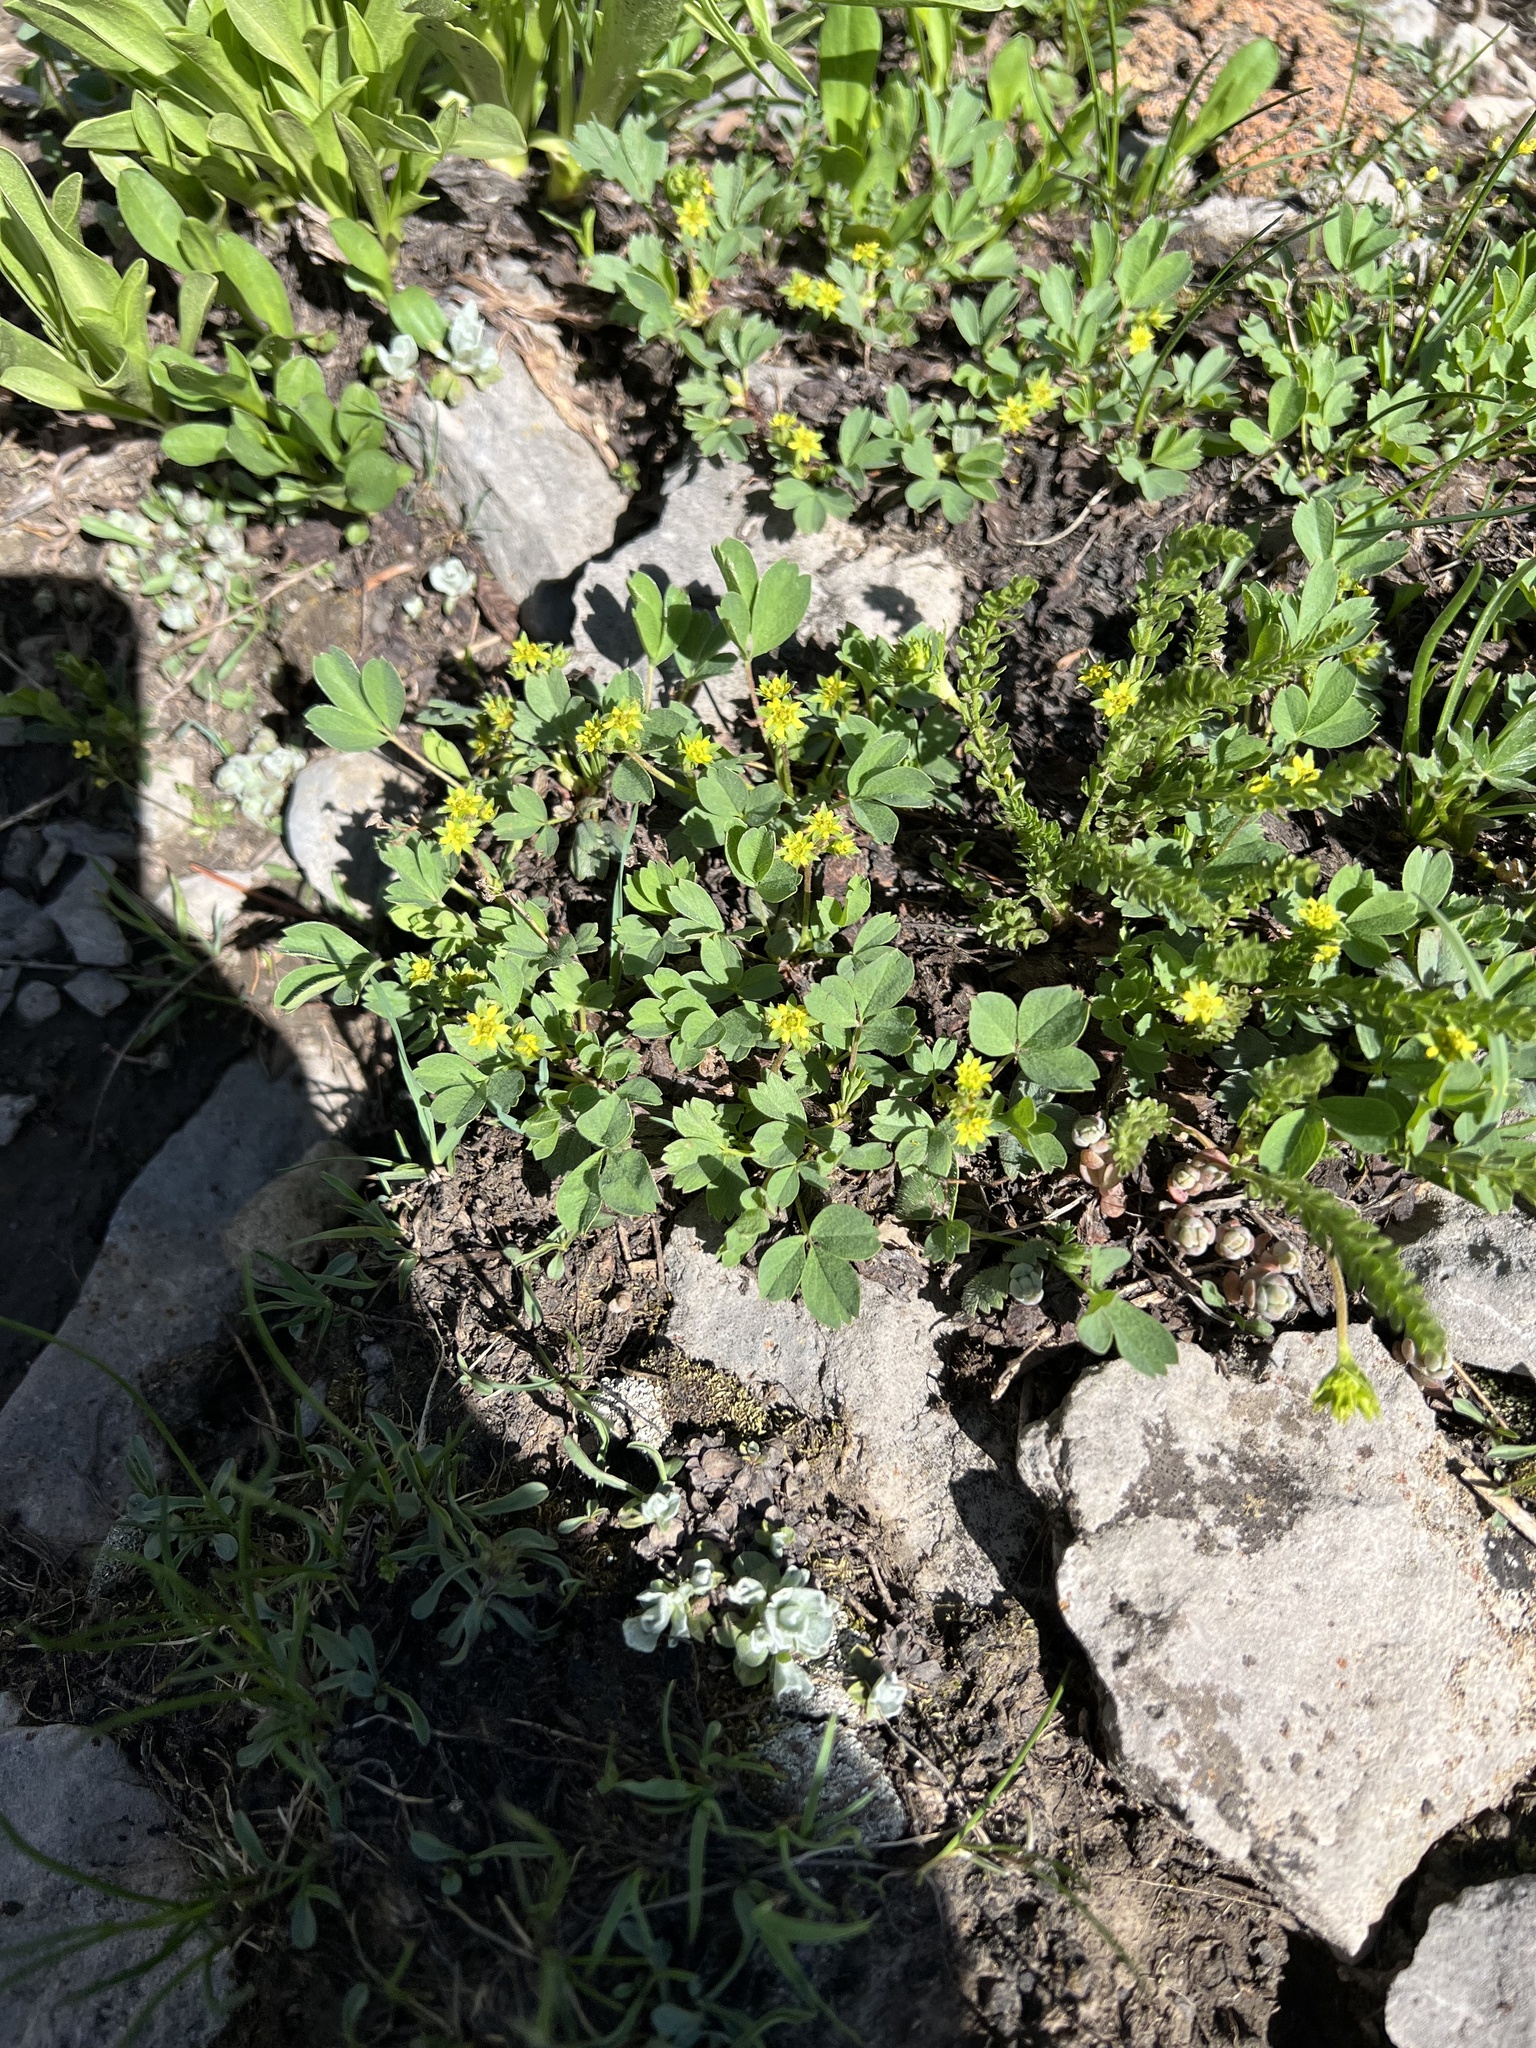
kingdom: Plantae
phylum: Tracheophyta
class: Magnoliopsida
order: Rosales
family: Rosaceae
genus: Sibbaldia
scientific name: Sibbaldia procumbens
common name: Creeping sibbaldia
